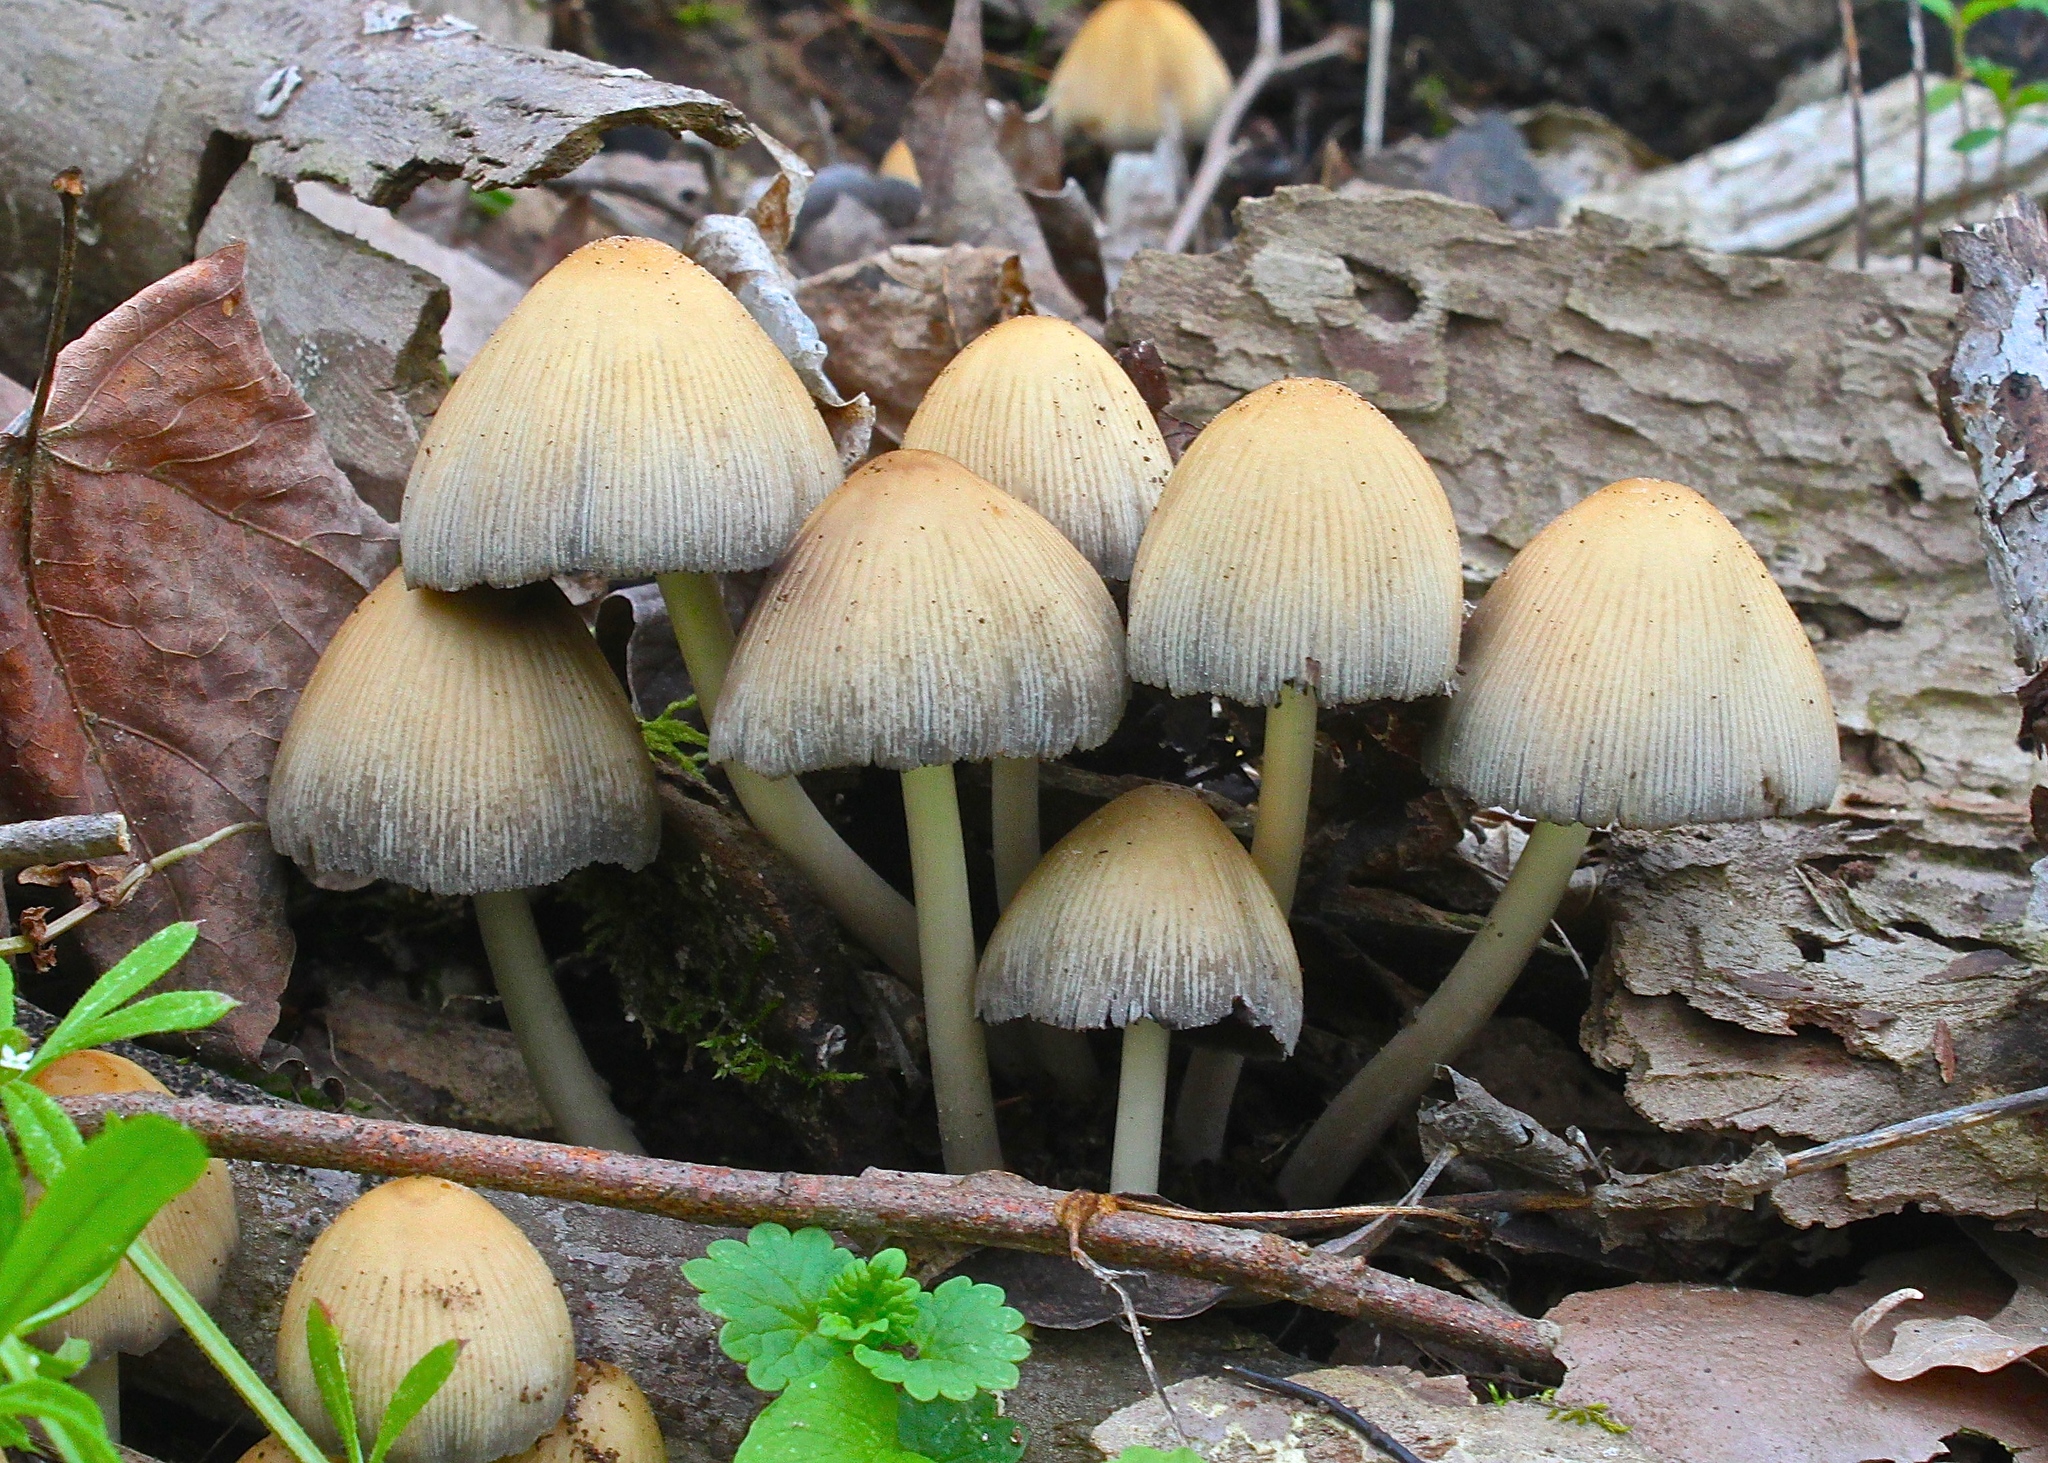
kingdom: Fungi
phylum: Basidiomycota
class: Agaricomycetes
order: Agaricales
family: Psathyrellaceae
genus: Coprinellus
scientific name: Coprinellus micaceus
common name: Glistening ink-cap
